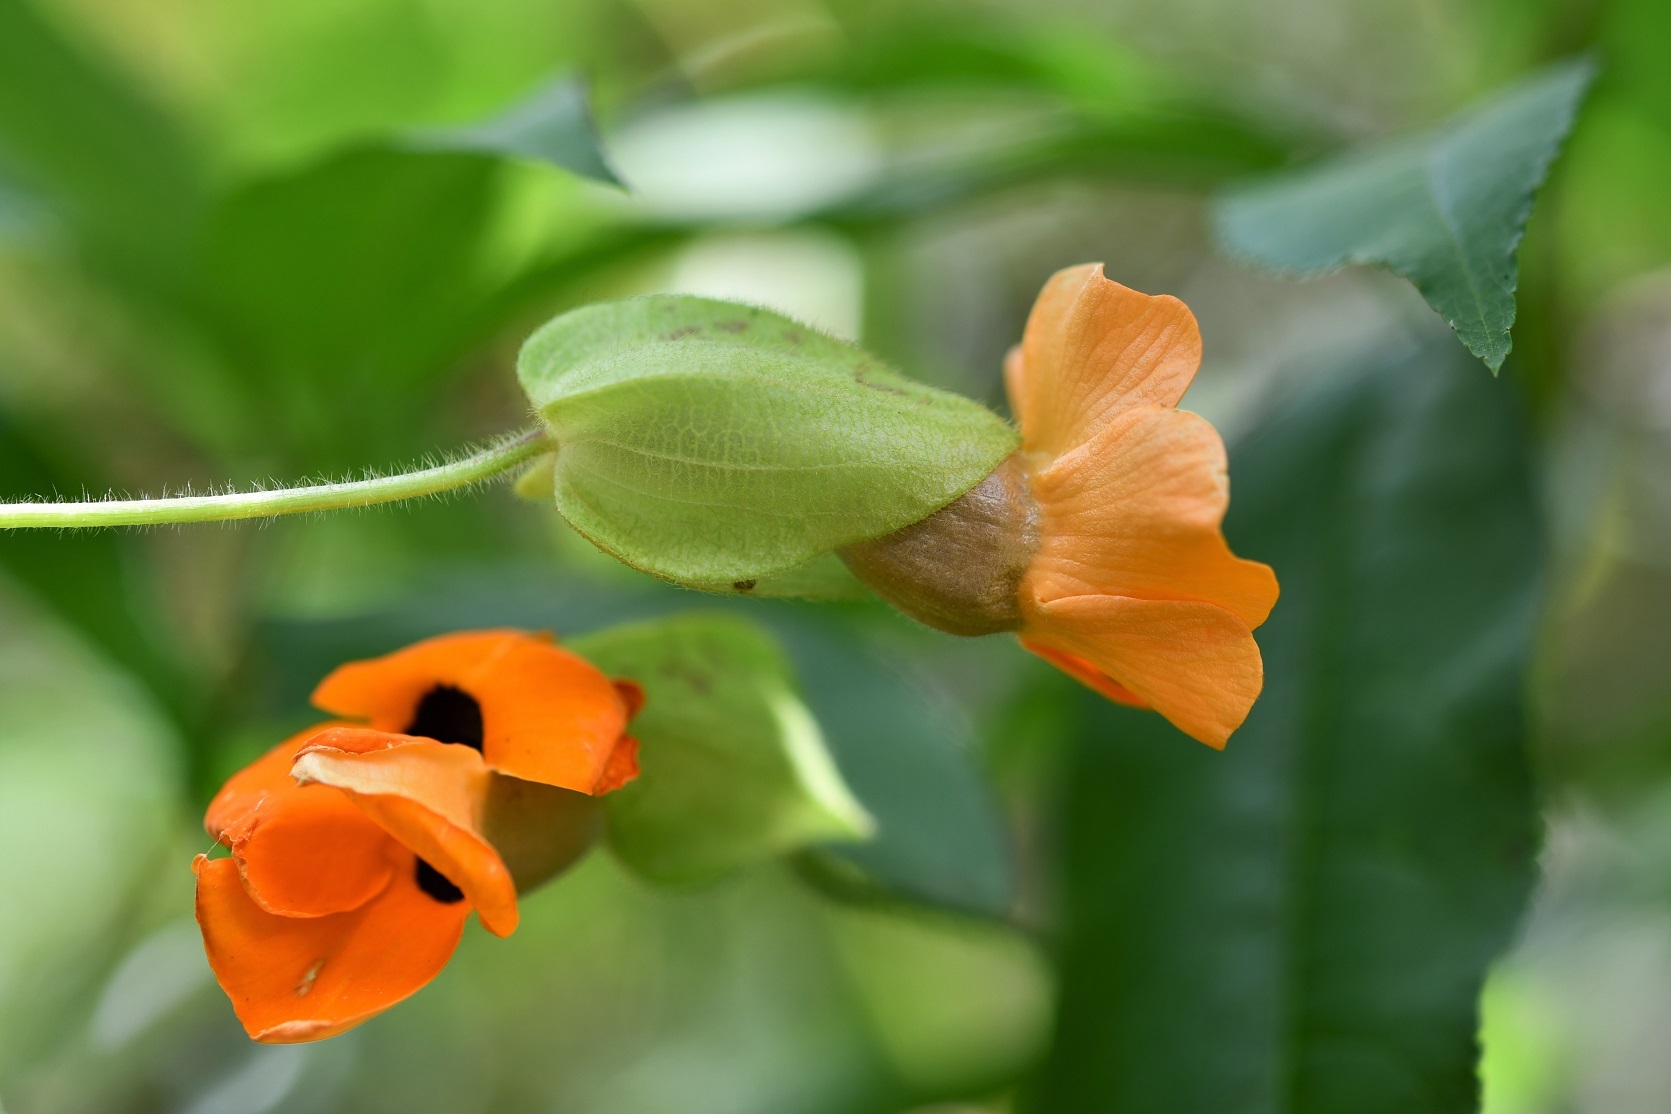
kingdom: Plantae
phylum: Tracheophyta
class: Magnoliopsida
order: Lamiales
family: Acanthaceae
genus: Thunbergia
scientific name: Thunbergia alata
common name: Blackeyed susan vine
